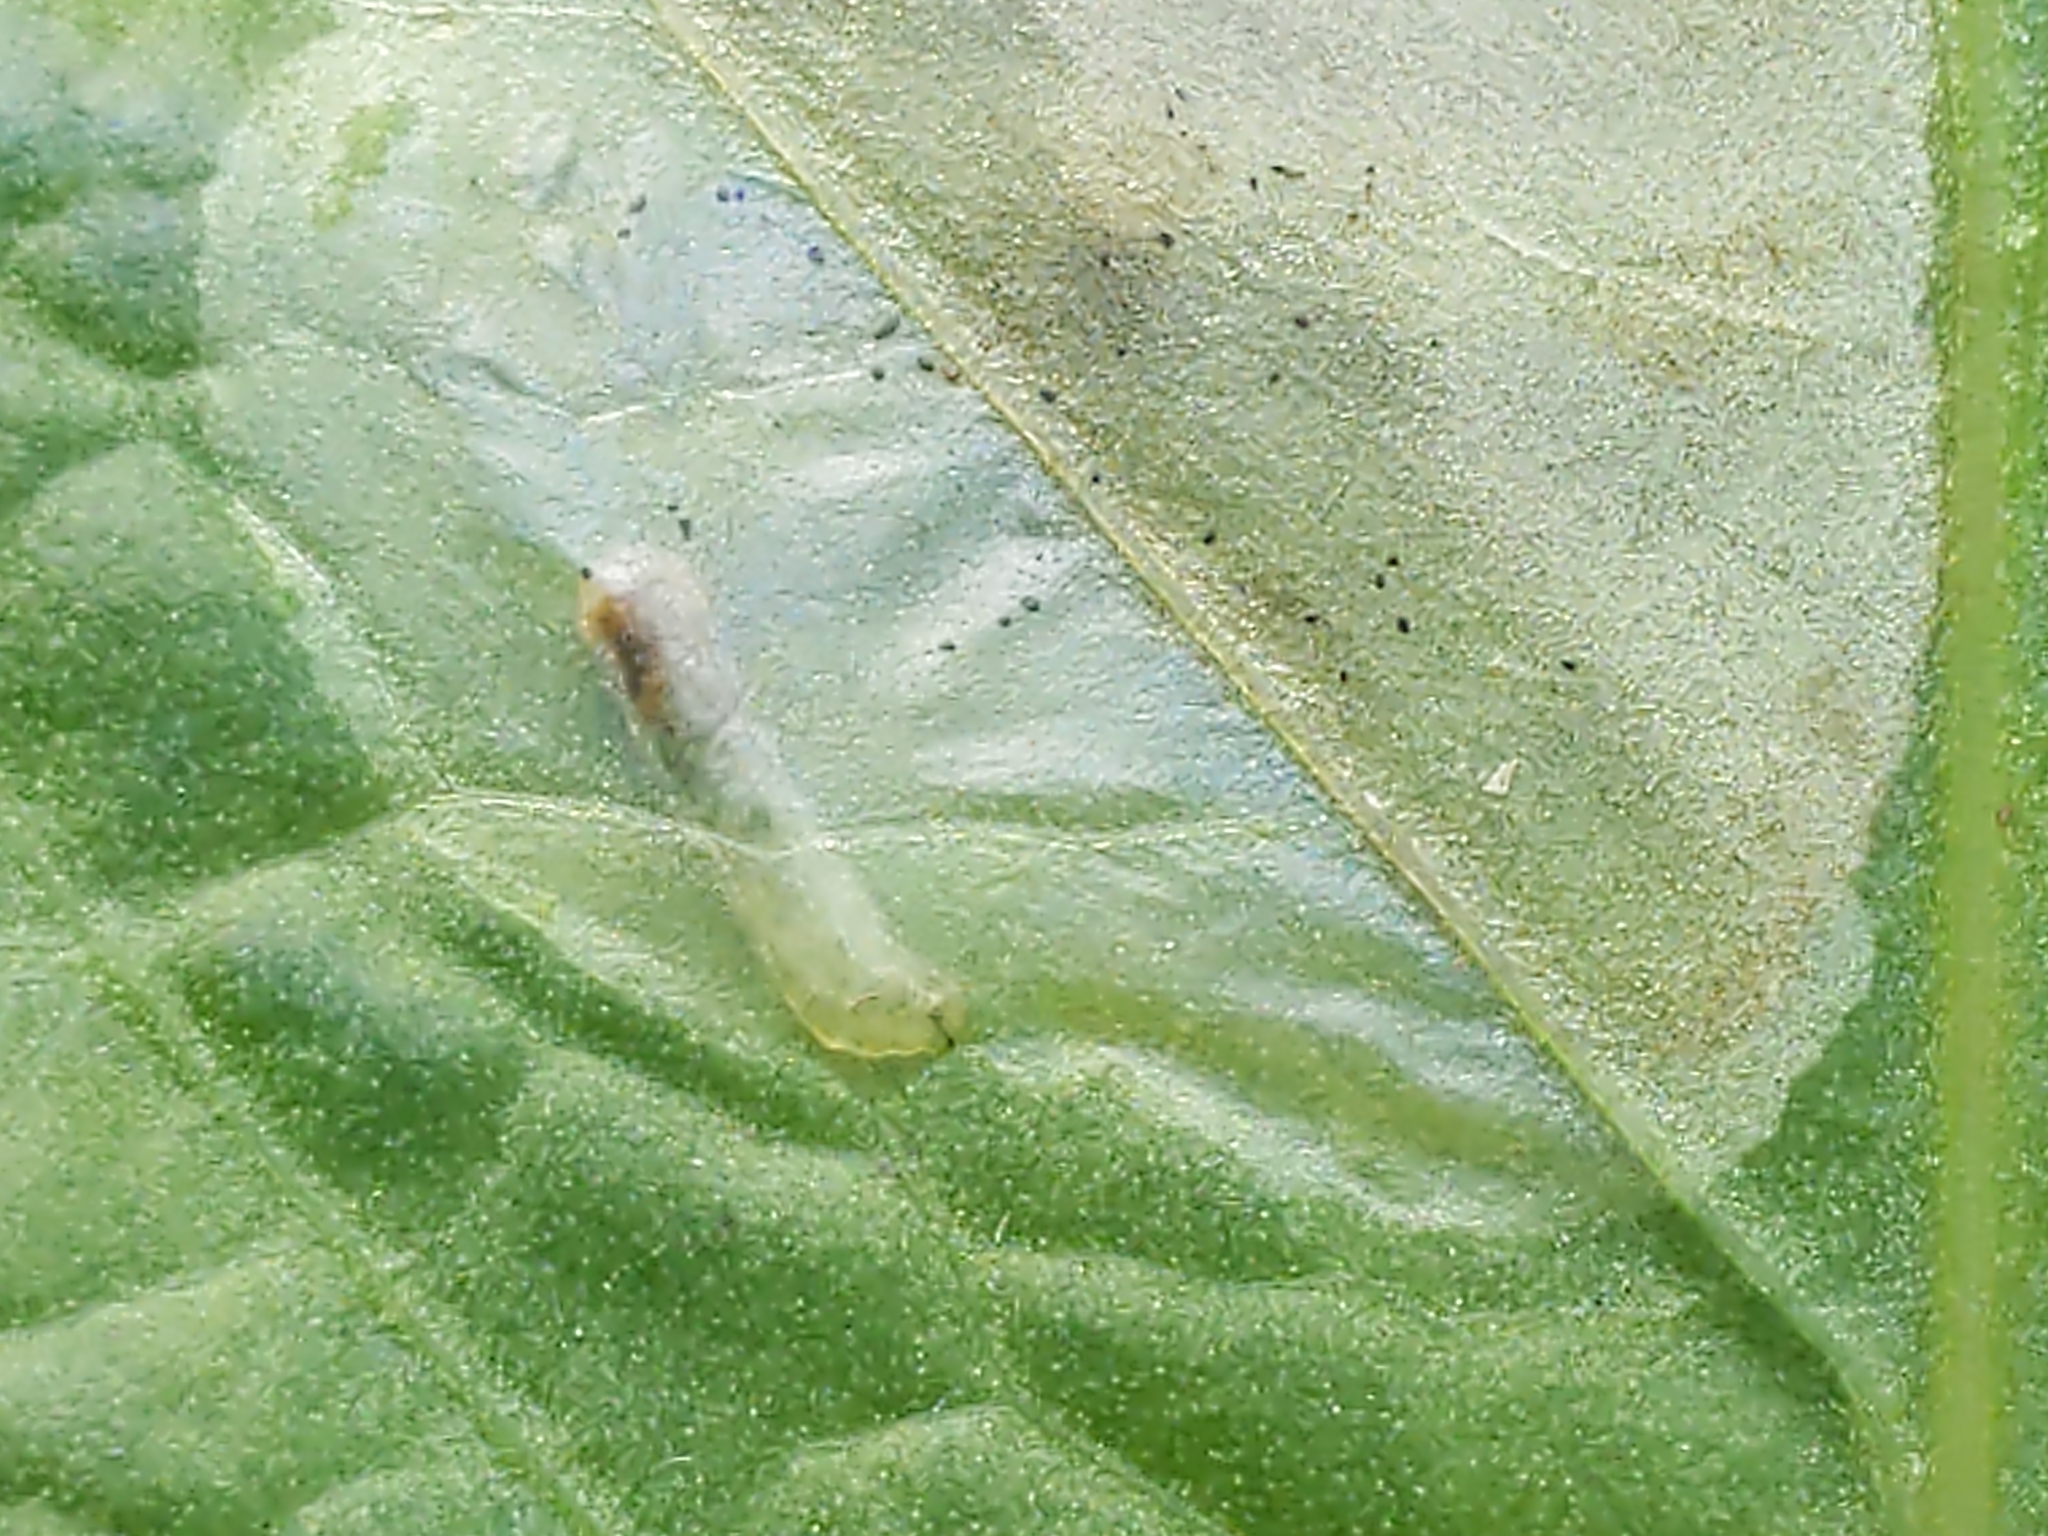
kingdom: Animalia
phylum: Arthropoda
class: Insecta
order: Diptera
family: Anthomyiidae
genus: Pegomya
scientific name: Pegomya bicolor
